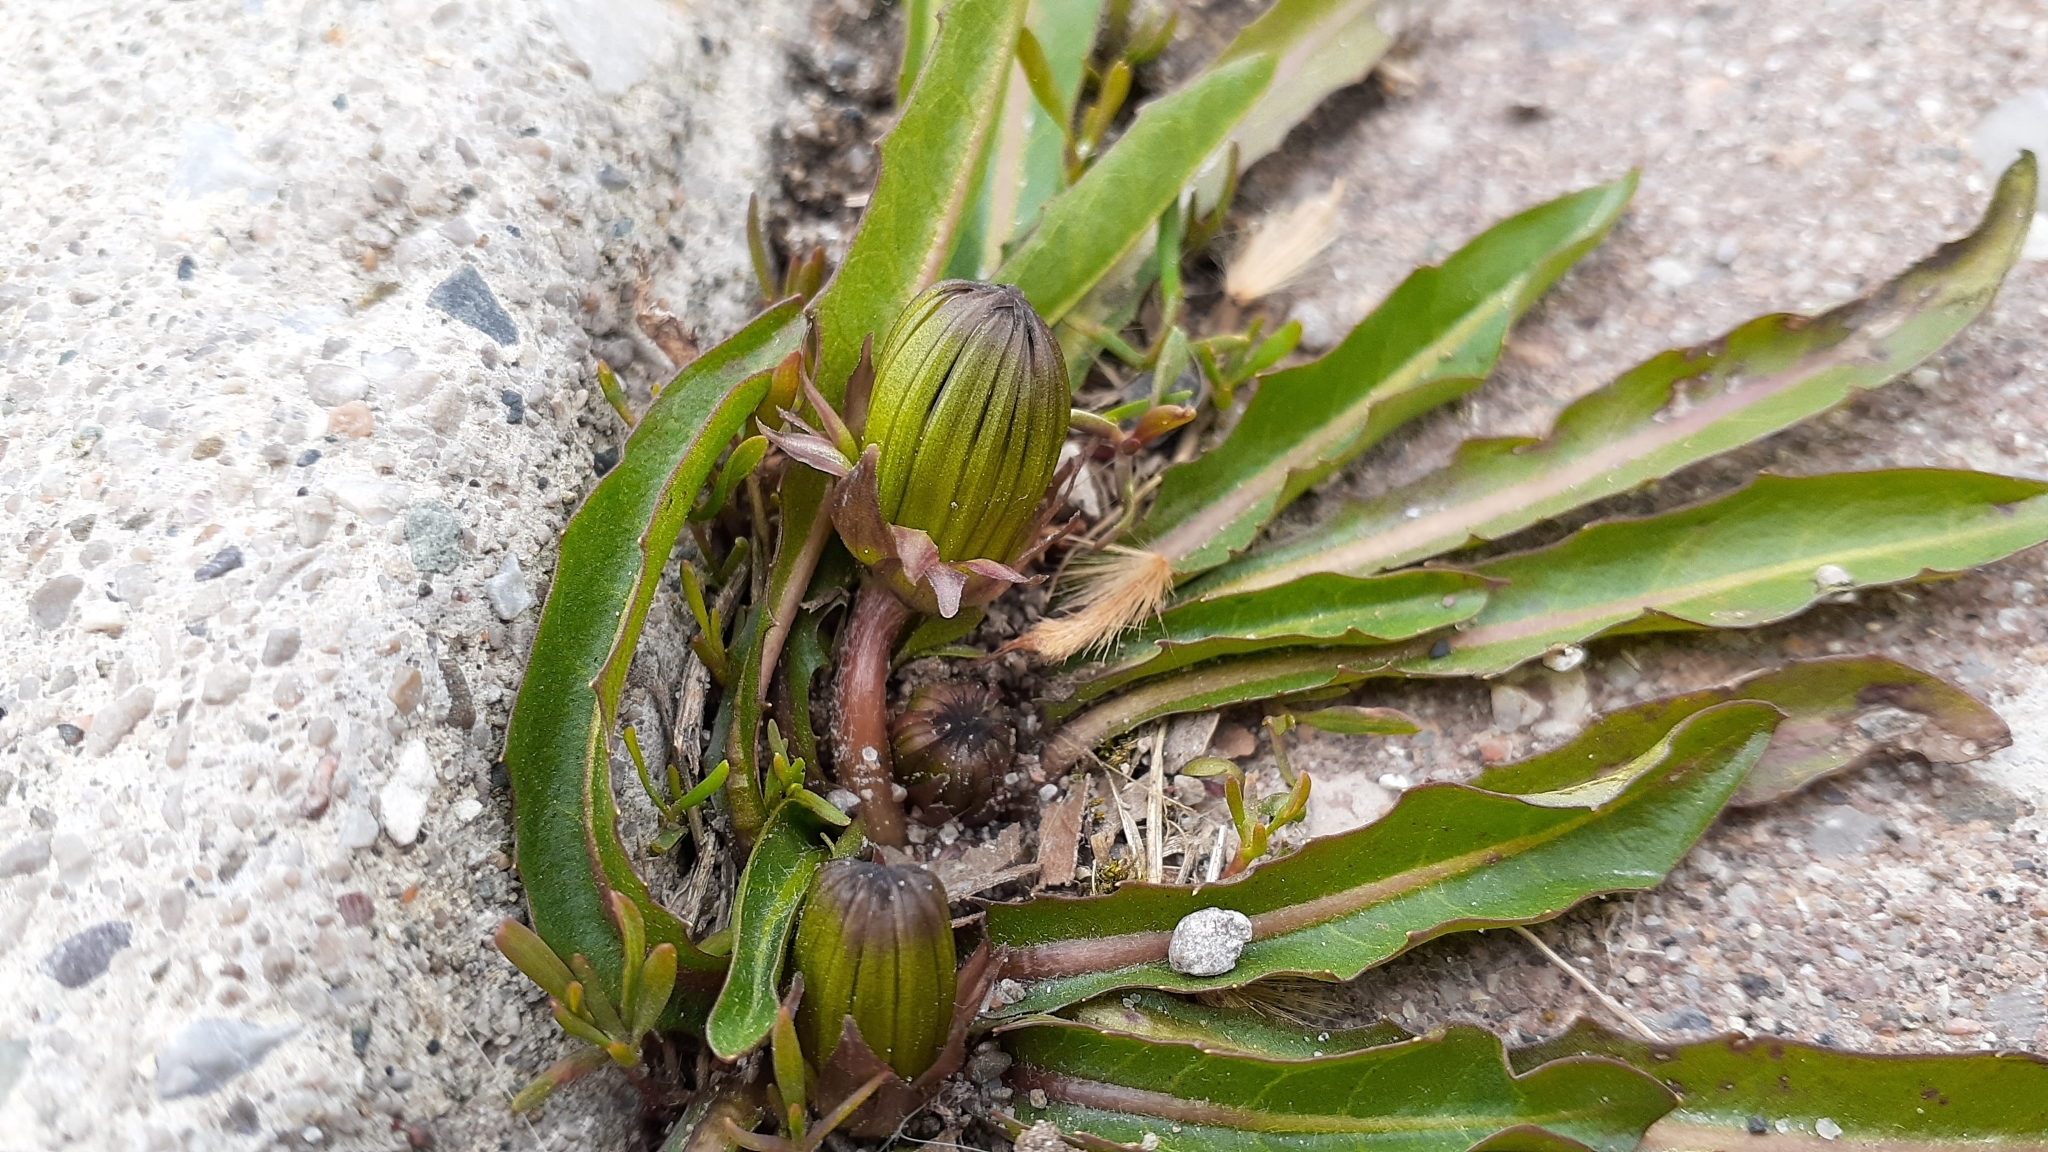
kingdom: Plantae
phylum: Tracheophyta
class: Magnoliopsida
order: Asterales
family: Asteraceae
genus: Taraxacum
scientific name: Taraxacum palustre
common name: Marsh dandelion
